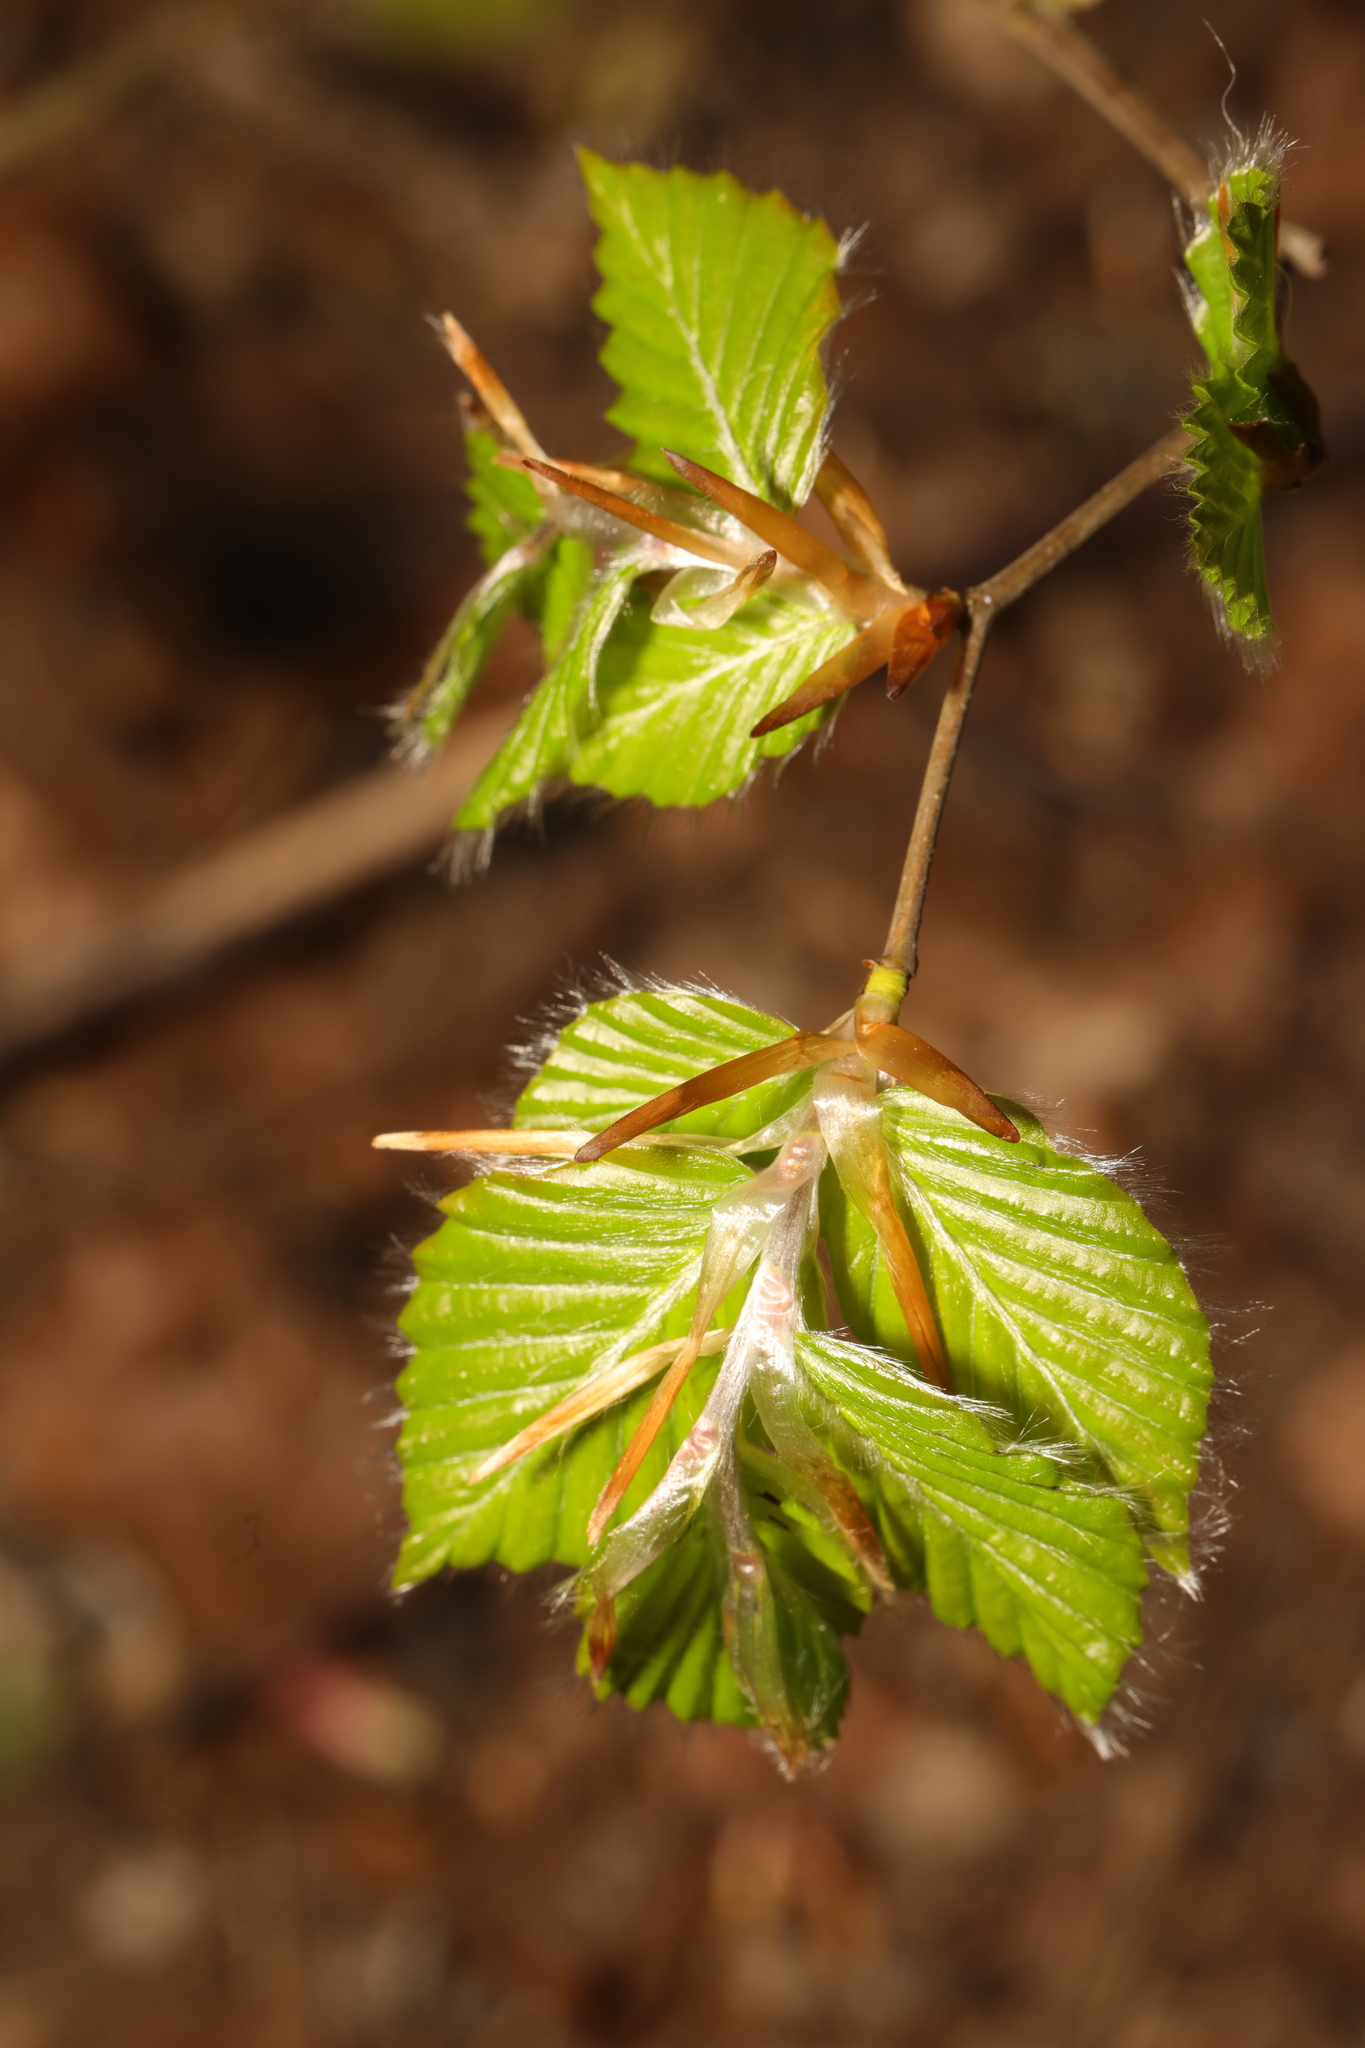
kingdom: Plantae
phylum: Tracheophyta
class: Magnoliopsida
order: Fagales
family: Fagaceae
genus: Fagus
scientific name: Fagus sylvatica
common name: Beech
